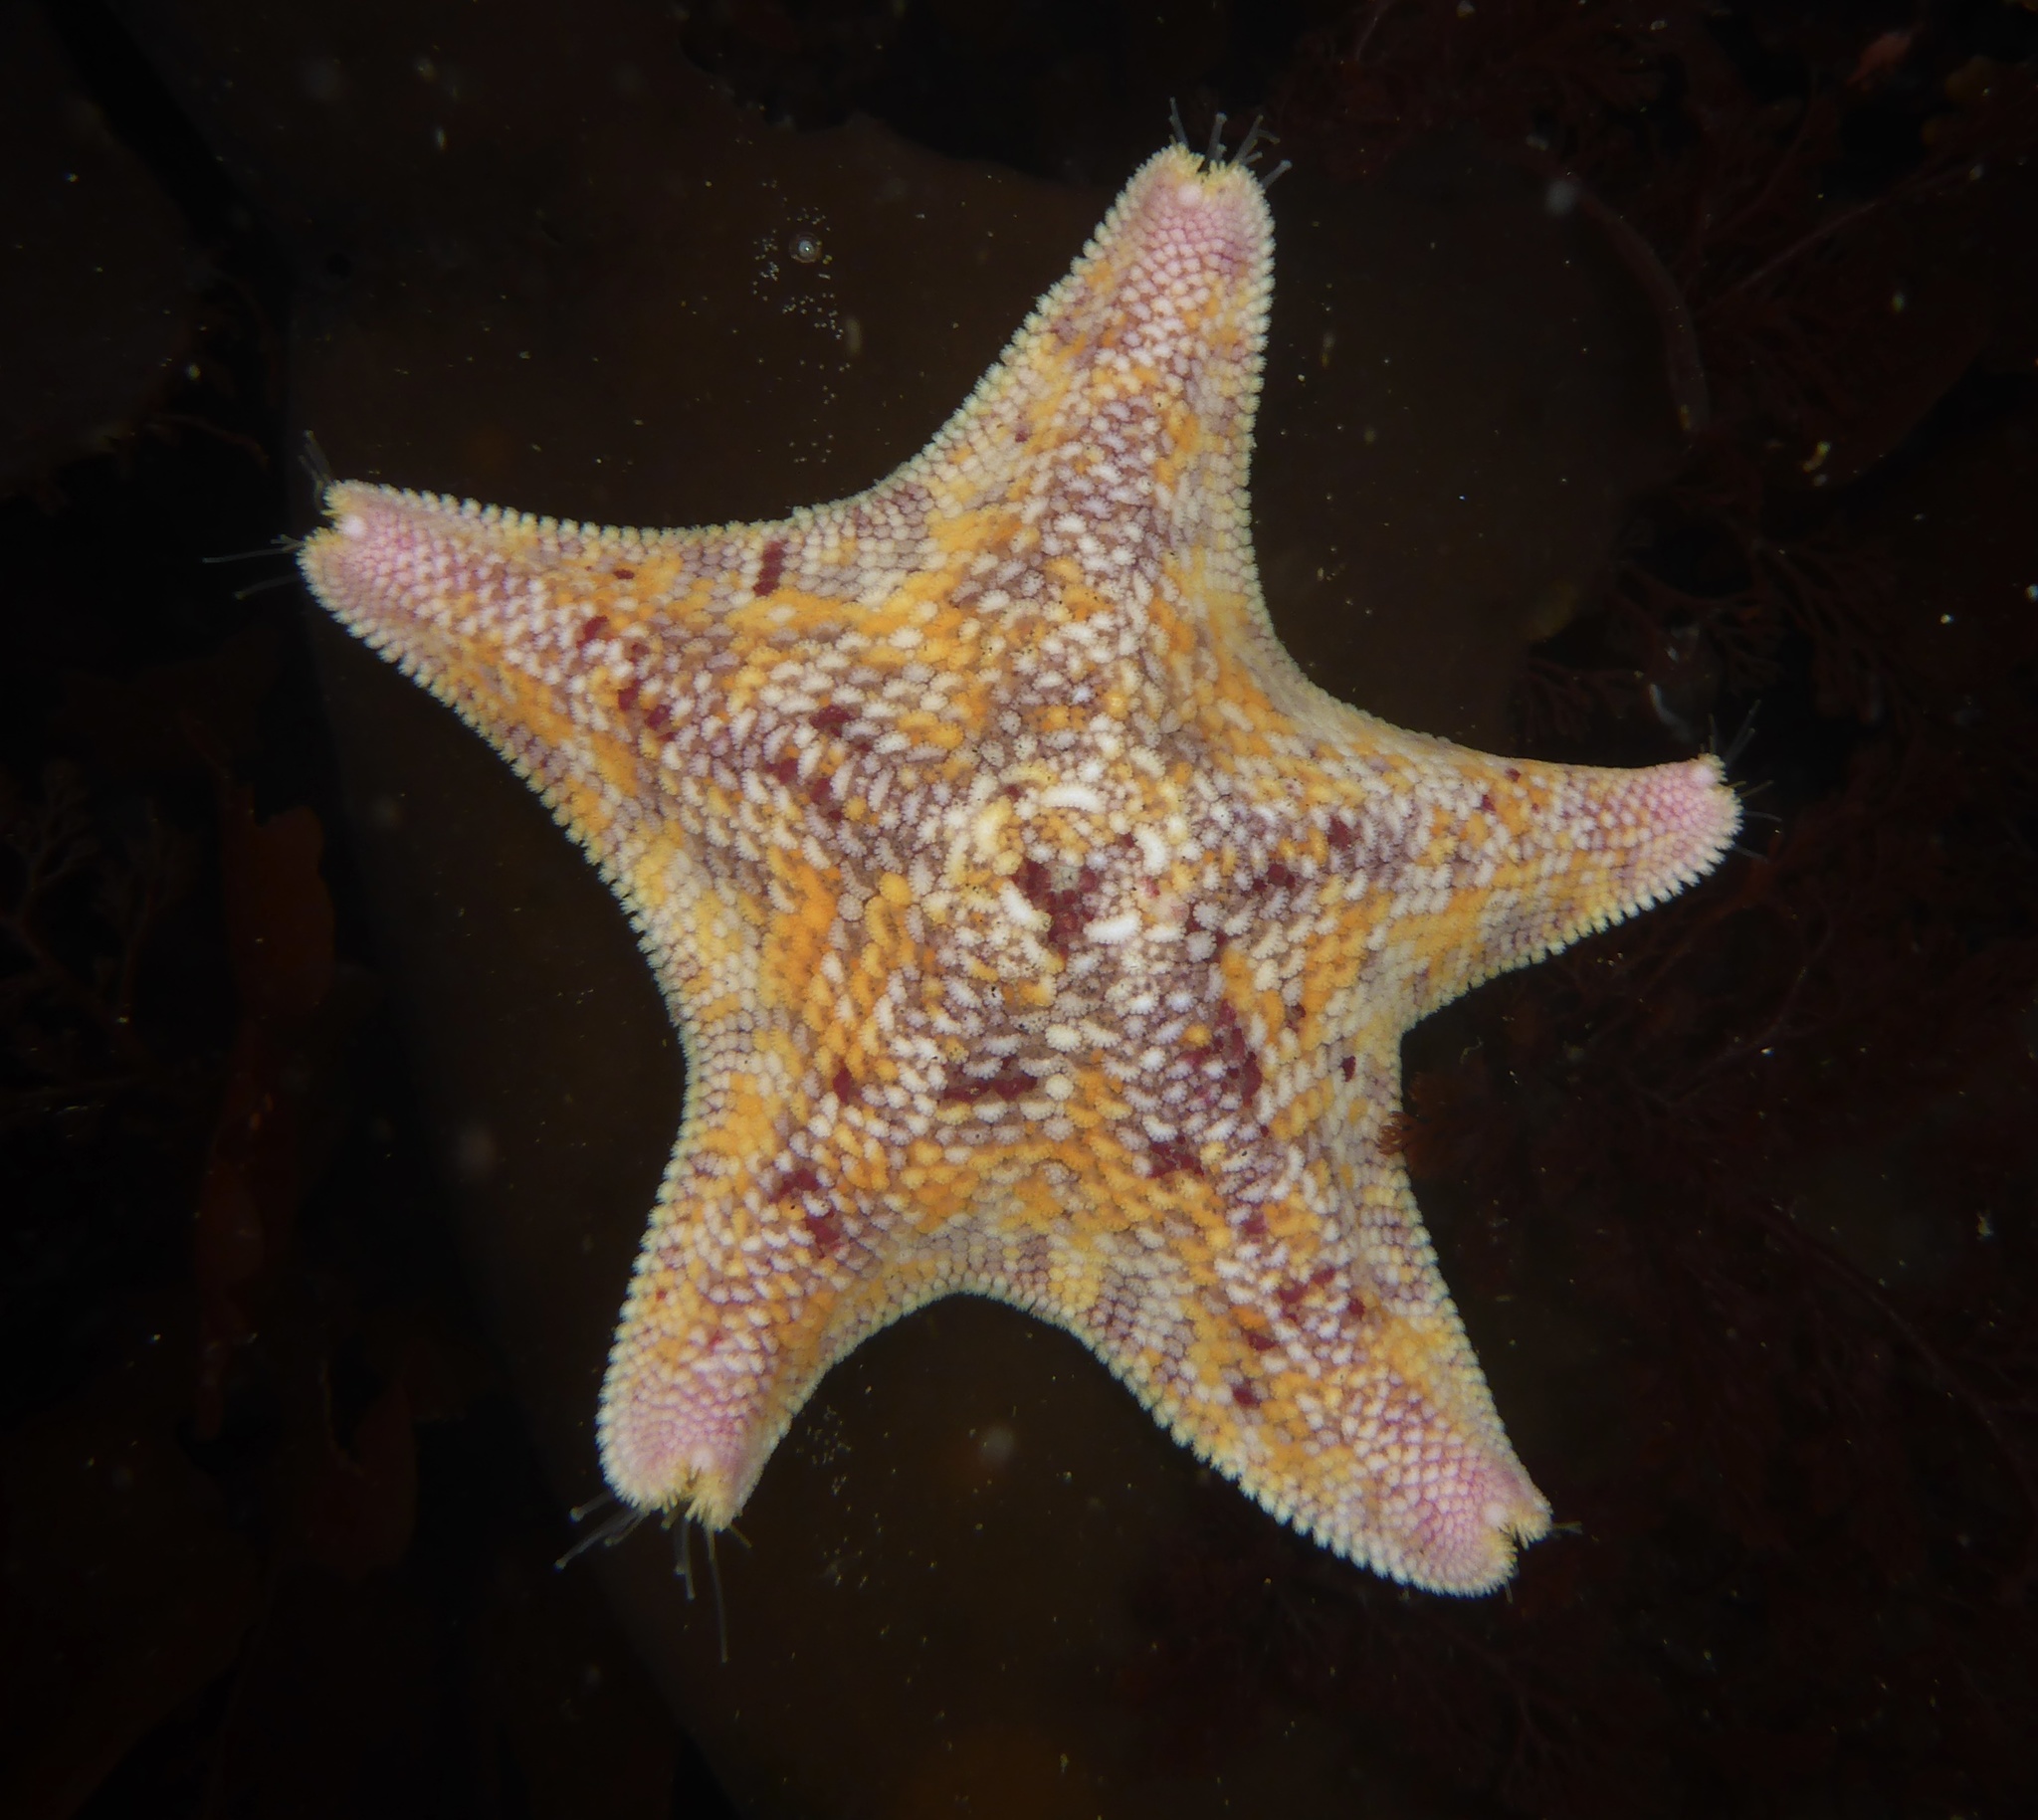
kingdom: Animalia
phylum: Echinodermata
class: Asteroidea
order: Valvatida
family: Asterinidae
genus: Patiria
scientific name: Patiria miniata
